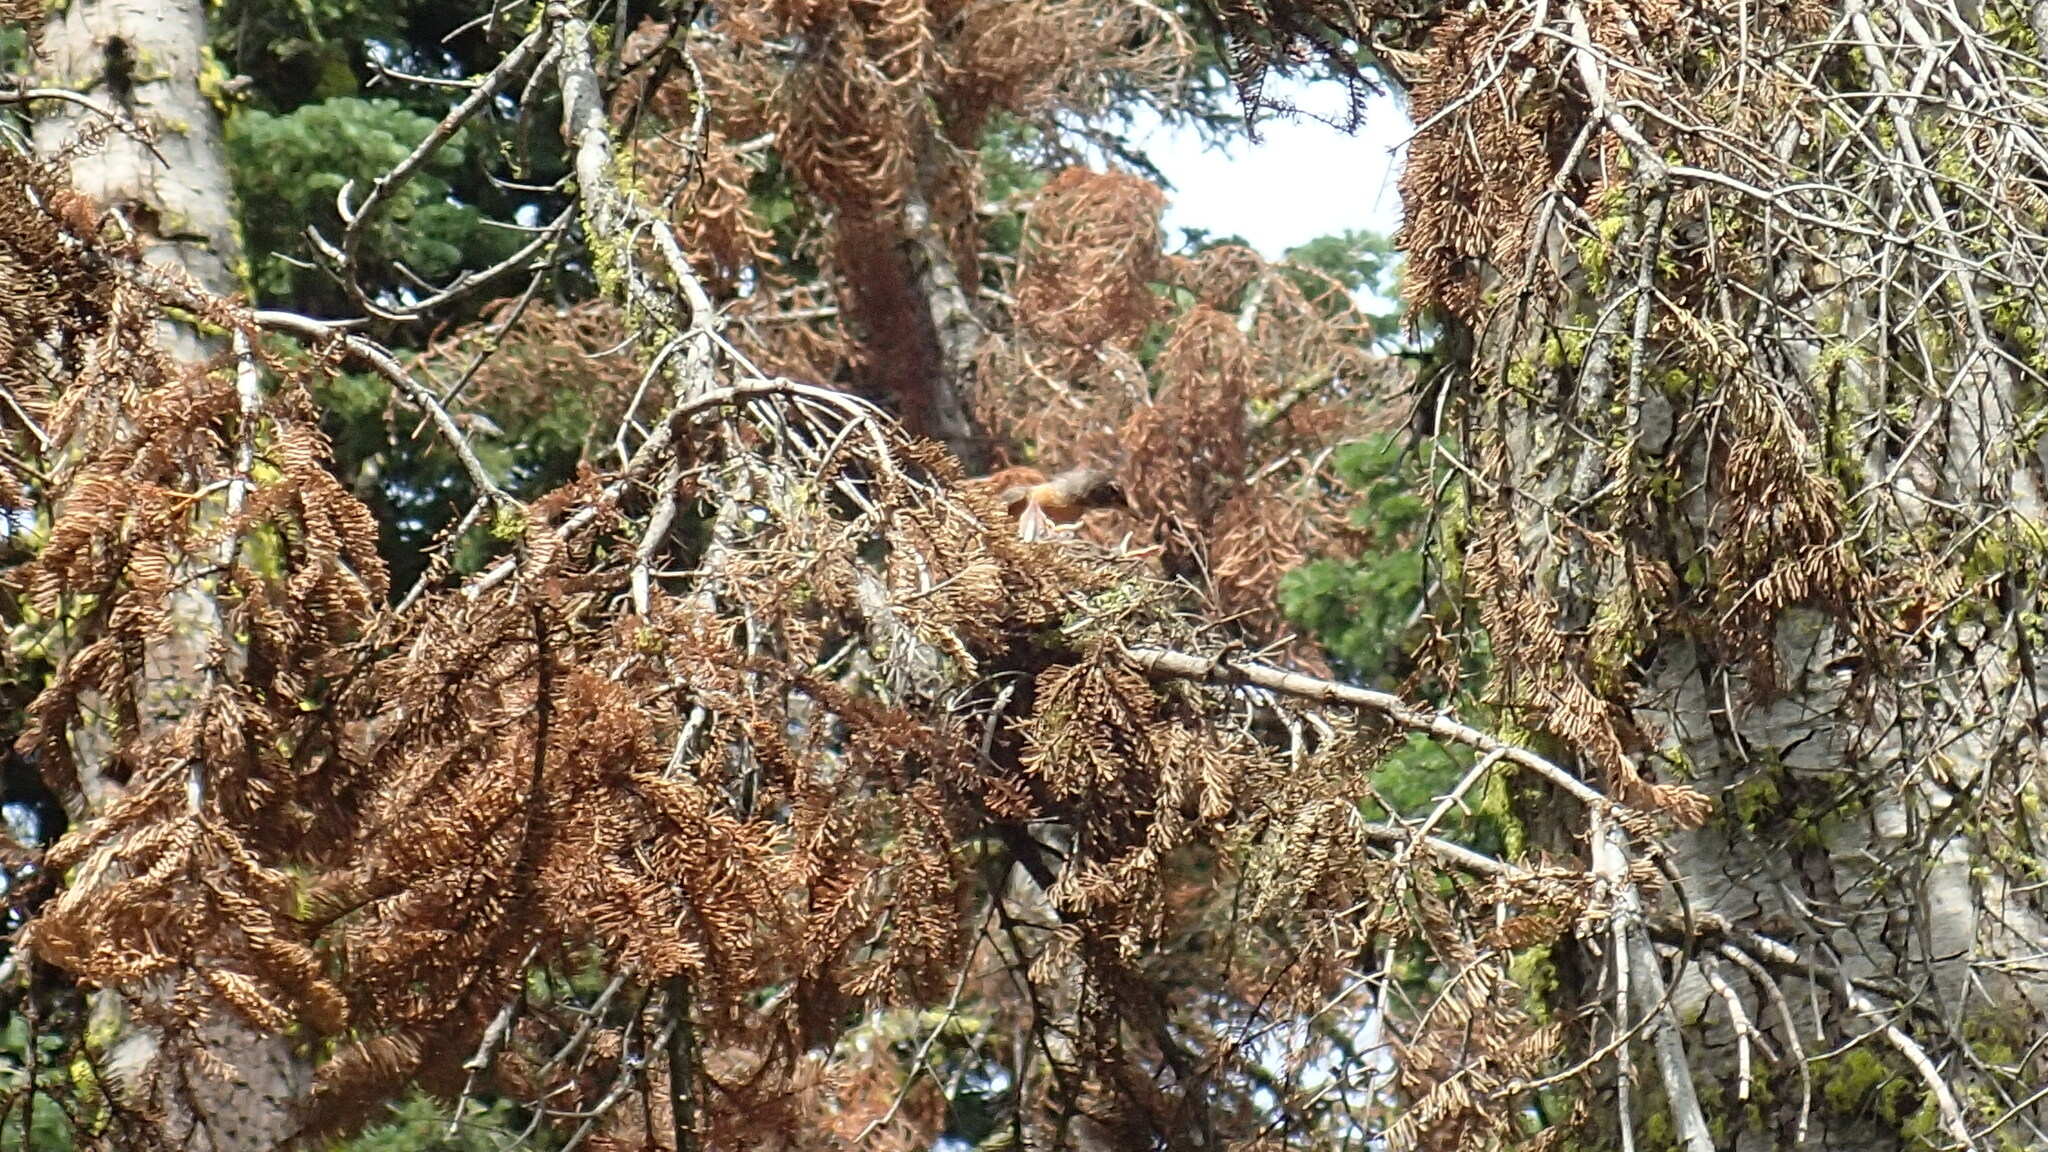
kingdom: Animalia
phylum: Chordata
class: Aves
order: Passeriformes
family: Turdidae
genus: Turdus
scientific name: Turdus migratorius
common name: American robin
